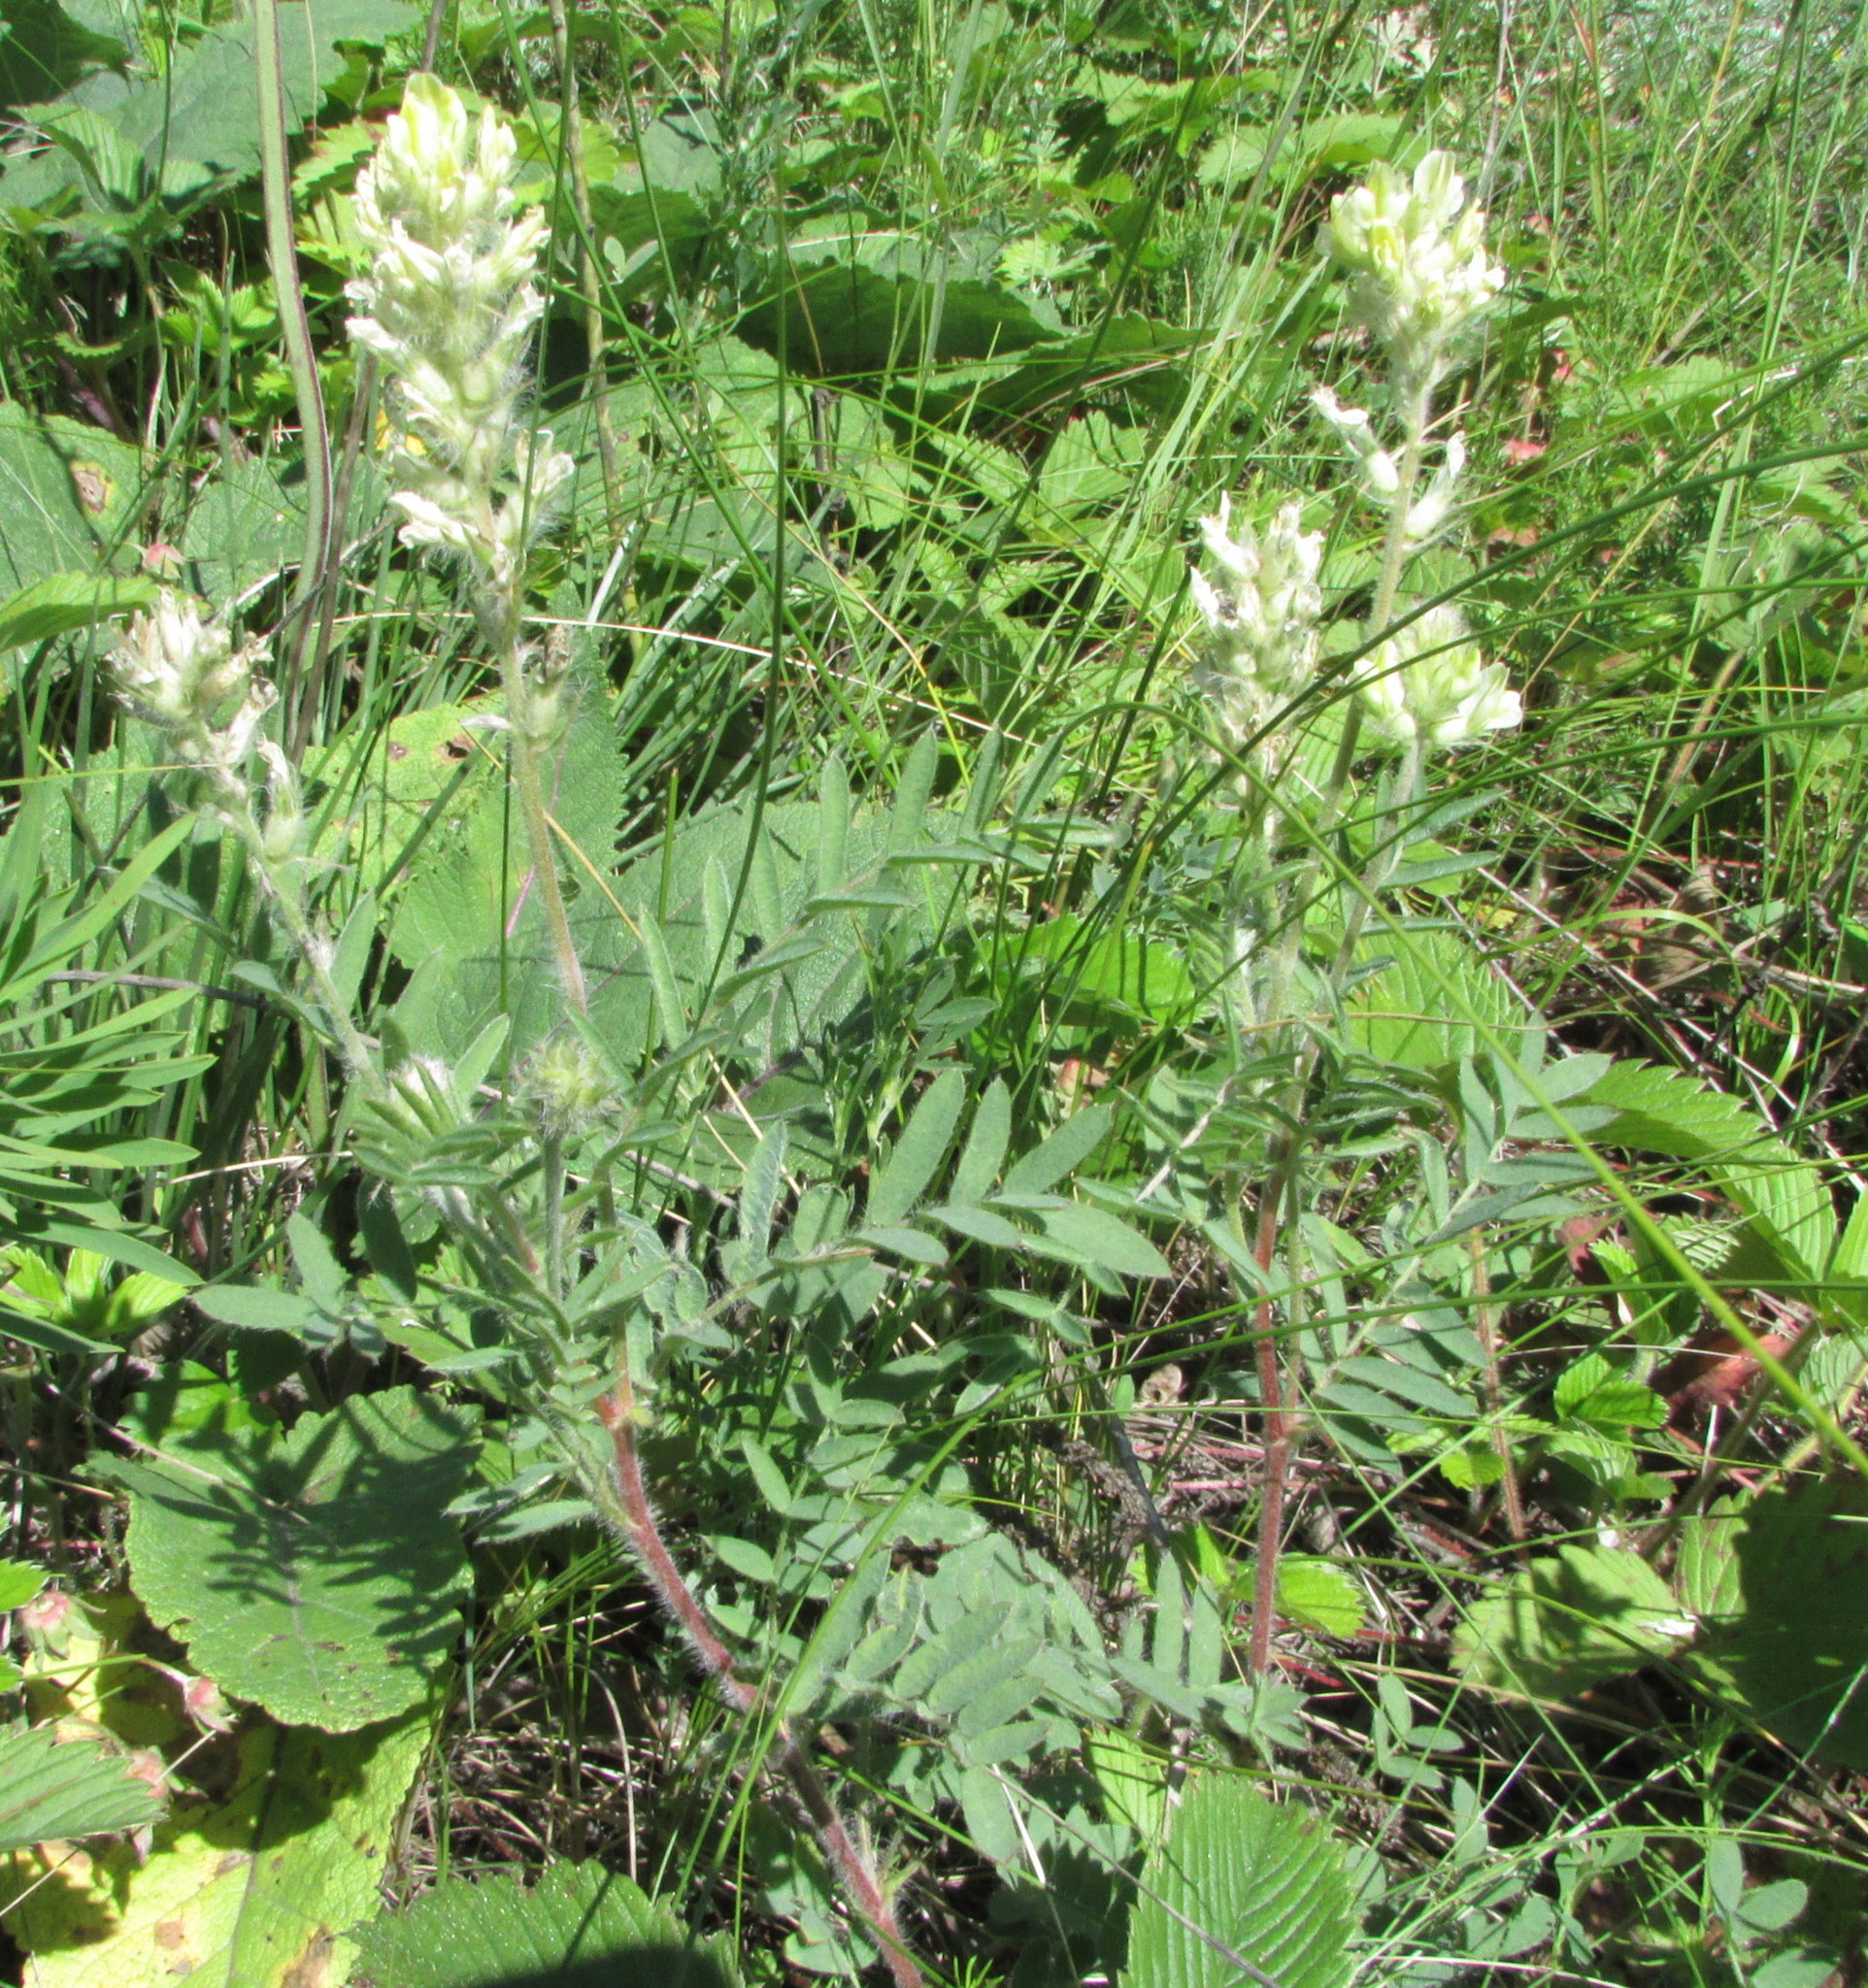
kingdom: Plantae
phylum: Tracheophyta
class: Magnoliopsida
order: Fabales
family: Fabaceae
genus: Oxytropis
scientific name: Oxytropis pilosa
